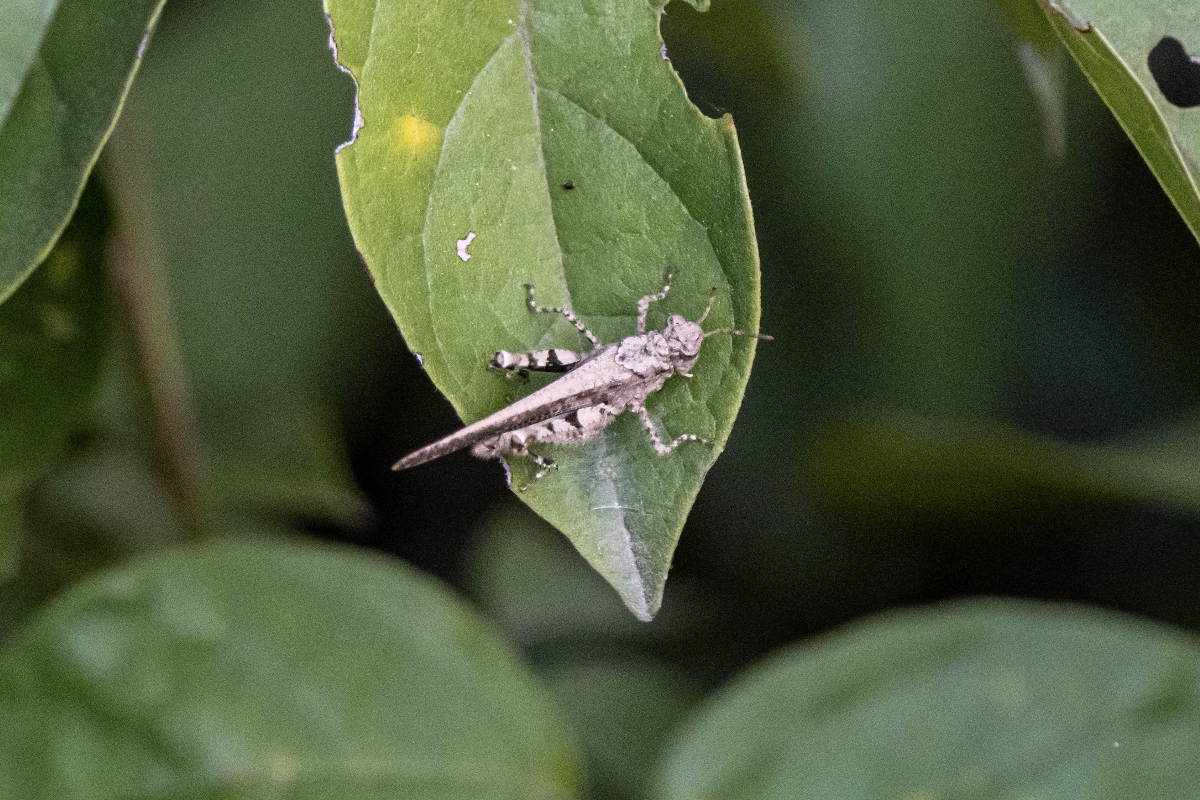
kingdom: Animalia
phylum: Arthropoda
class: Insecta
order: Orthoptera
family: Acrididae
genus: Trilophidia
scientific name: Trilophidia annulata
